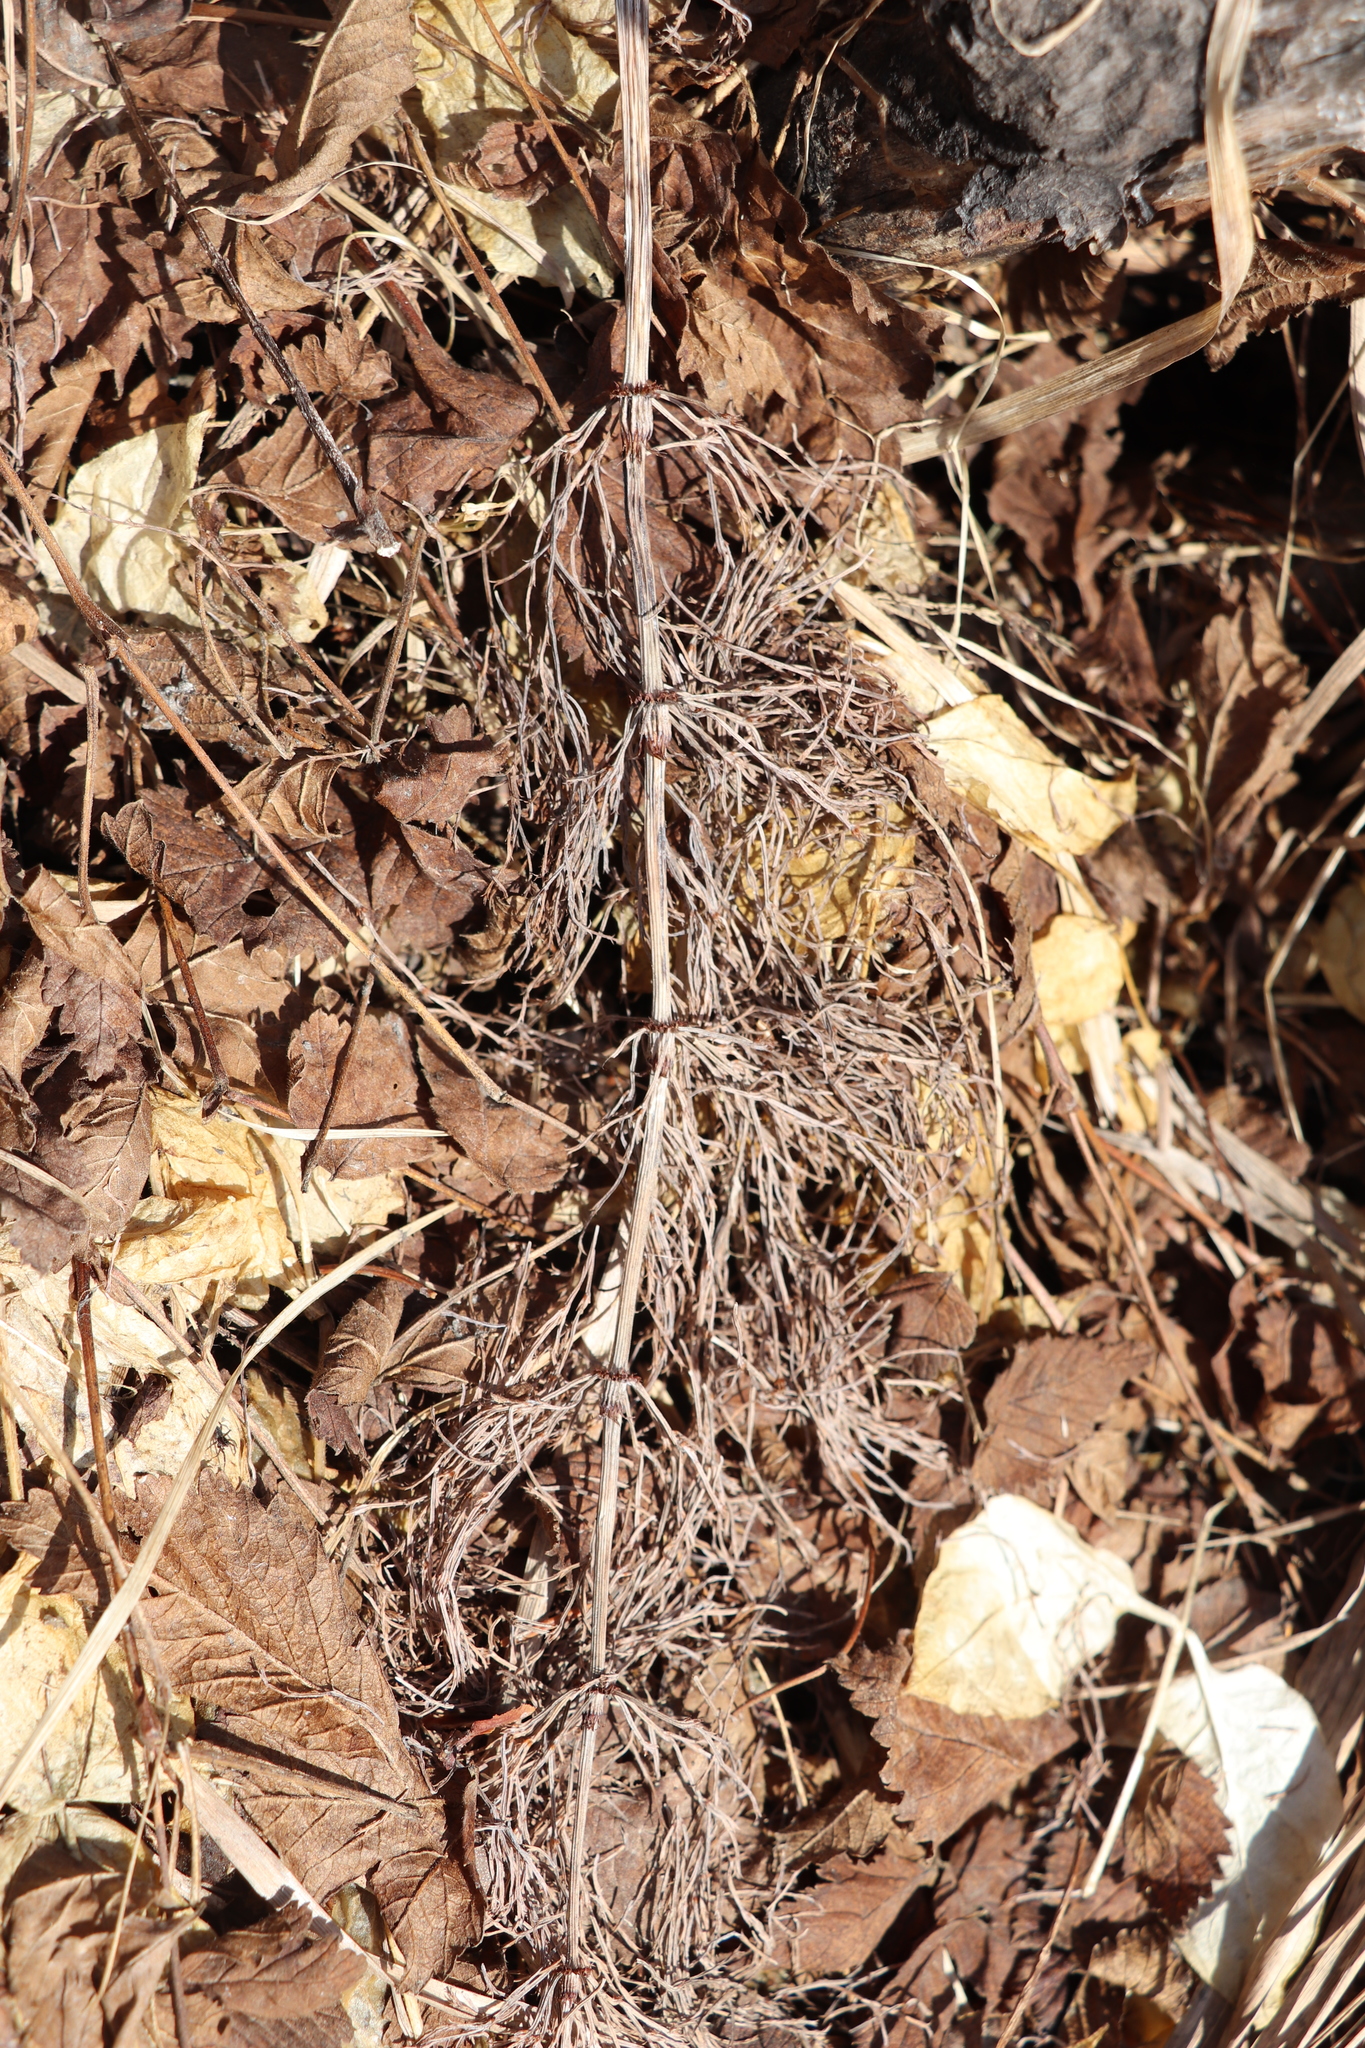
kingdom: Plantae
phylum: Tracheophyta
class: Polypodiopsida
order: Equisetales
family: Equisetaceae
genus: Equisetum
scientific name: Equisetum sylvaticum
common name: Wood horsetail
